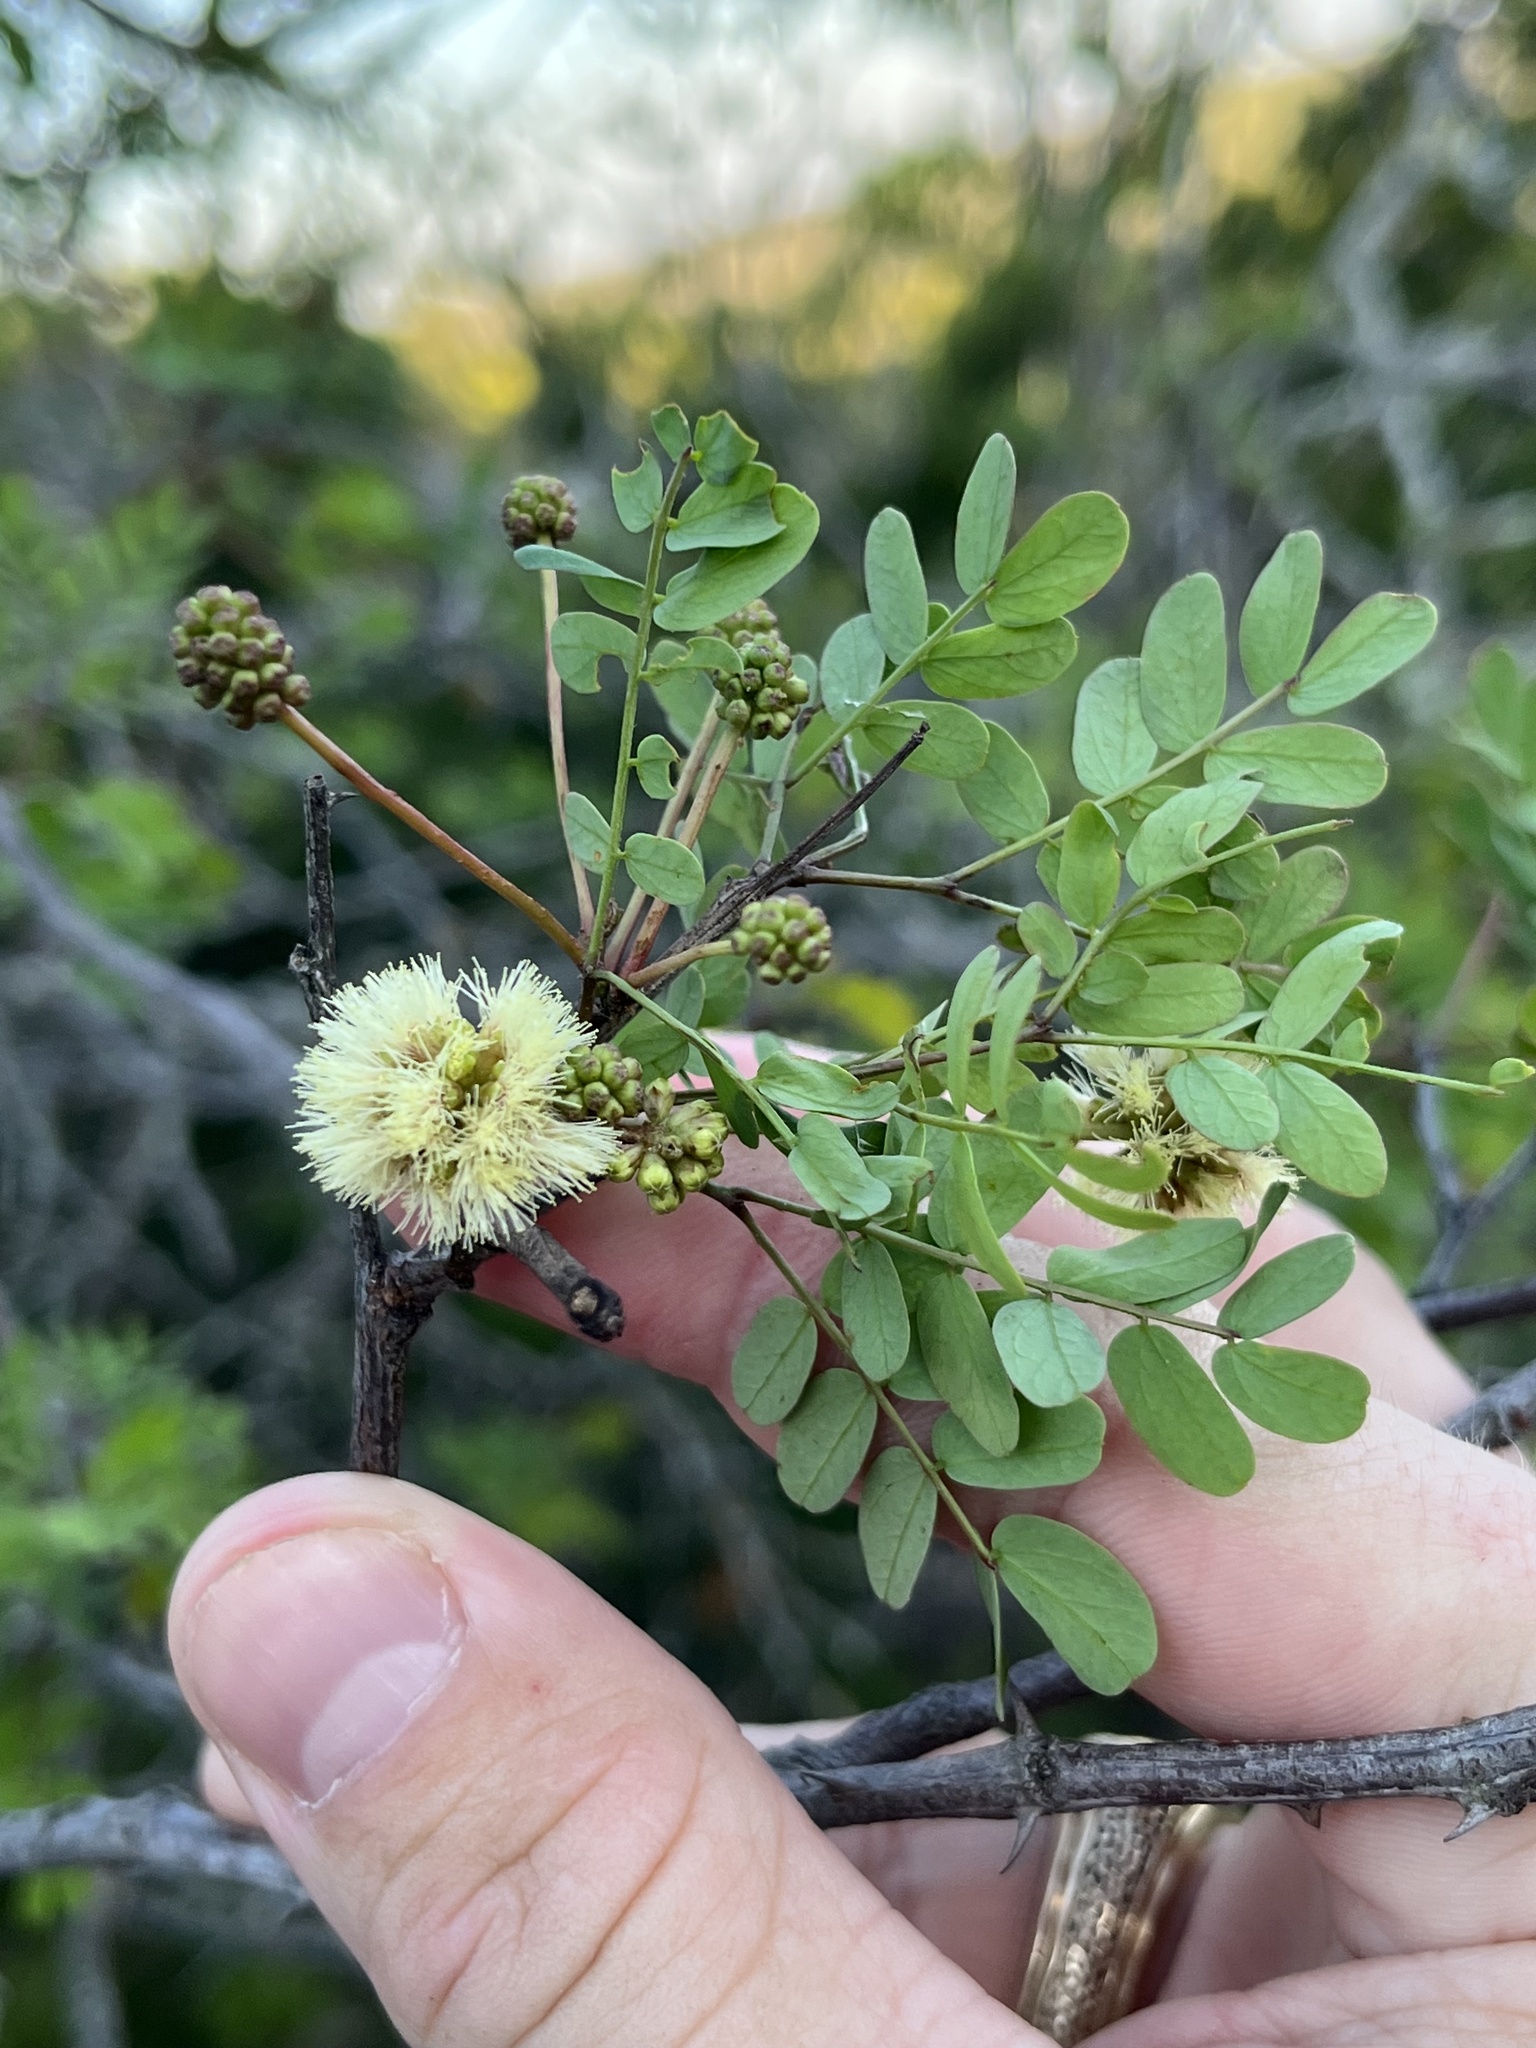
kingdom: Plantae
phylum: Tracheophyta
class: Magnoliopsida
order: Fabales
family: Fabaceae
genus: Senegalia
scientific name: Senegalia roemeriana
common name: Roemer's acacia
